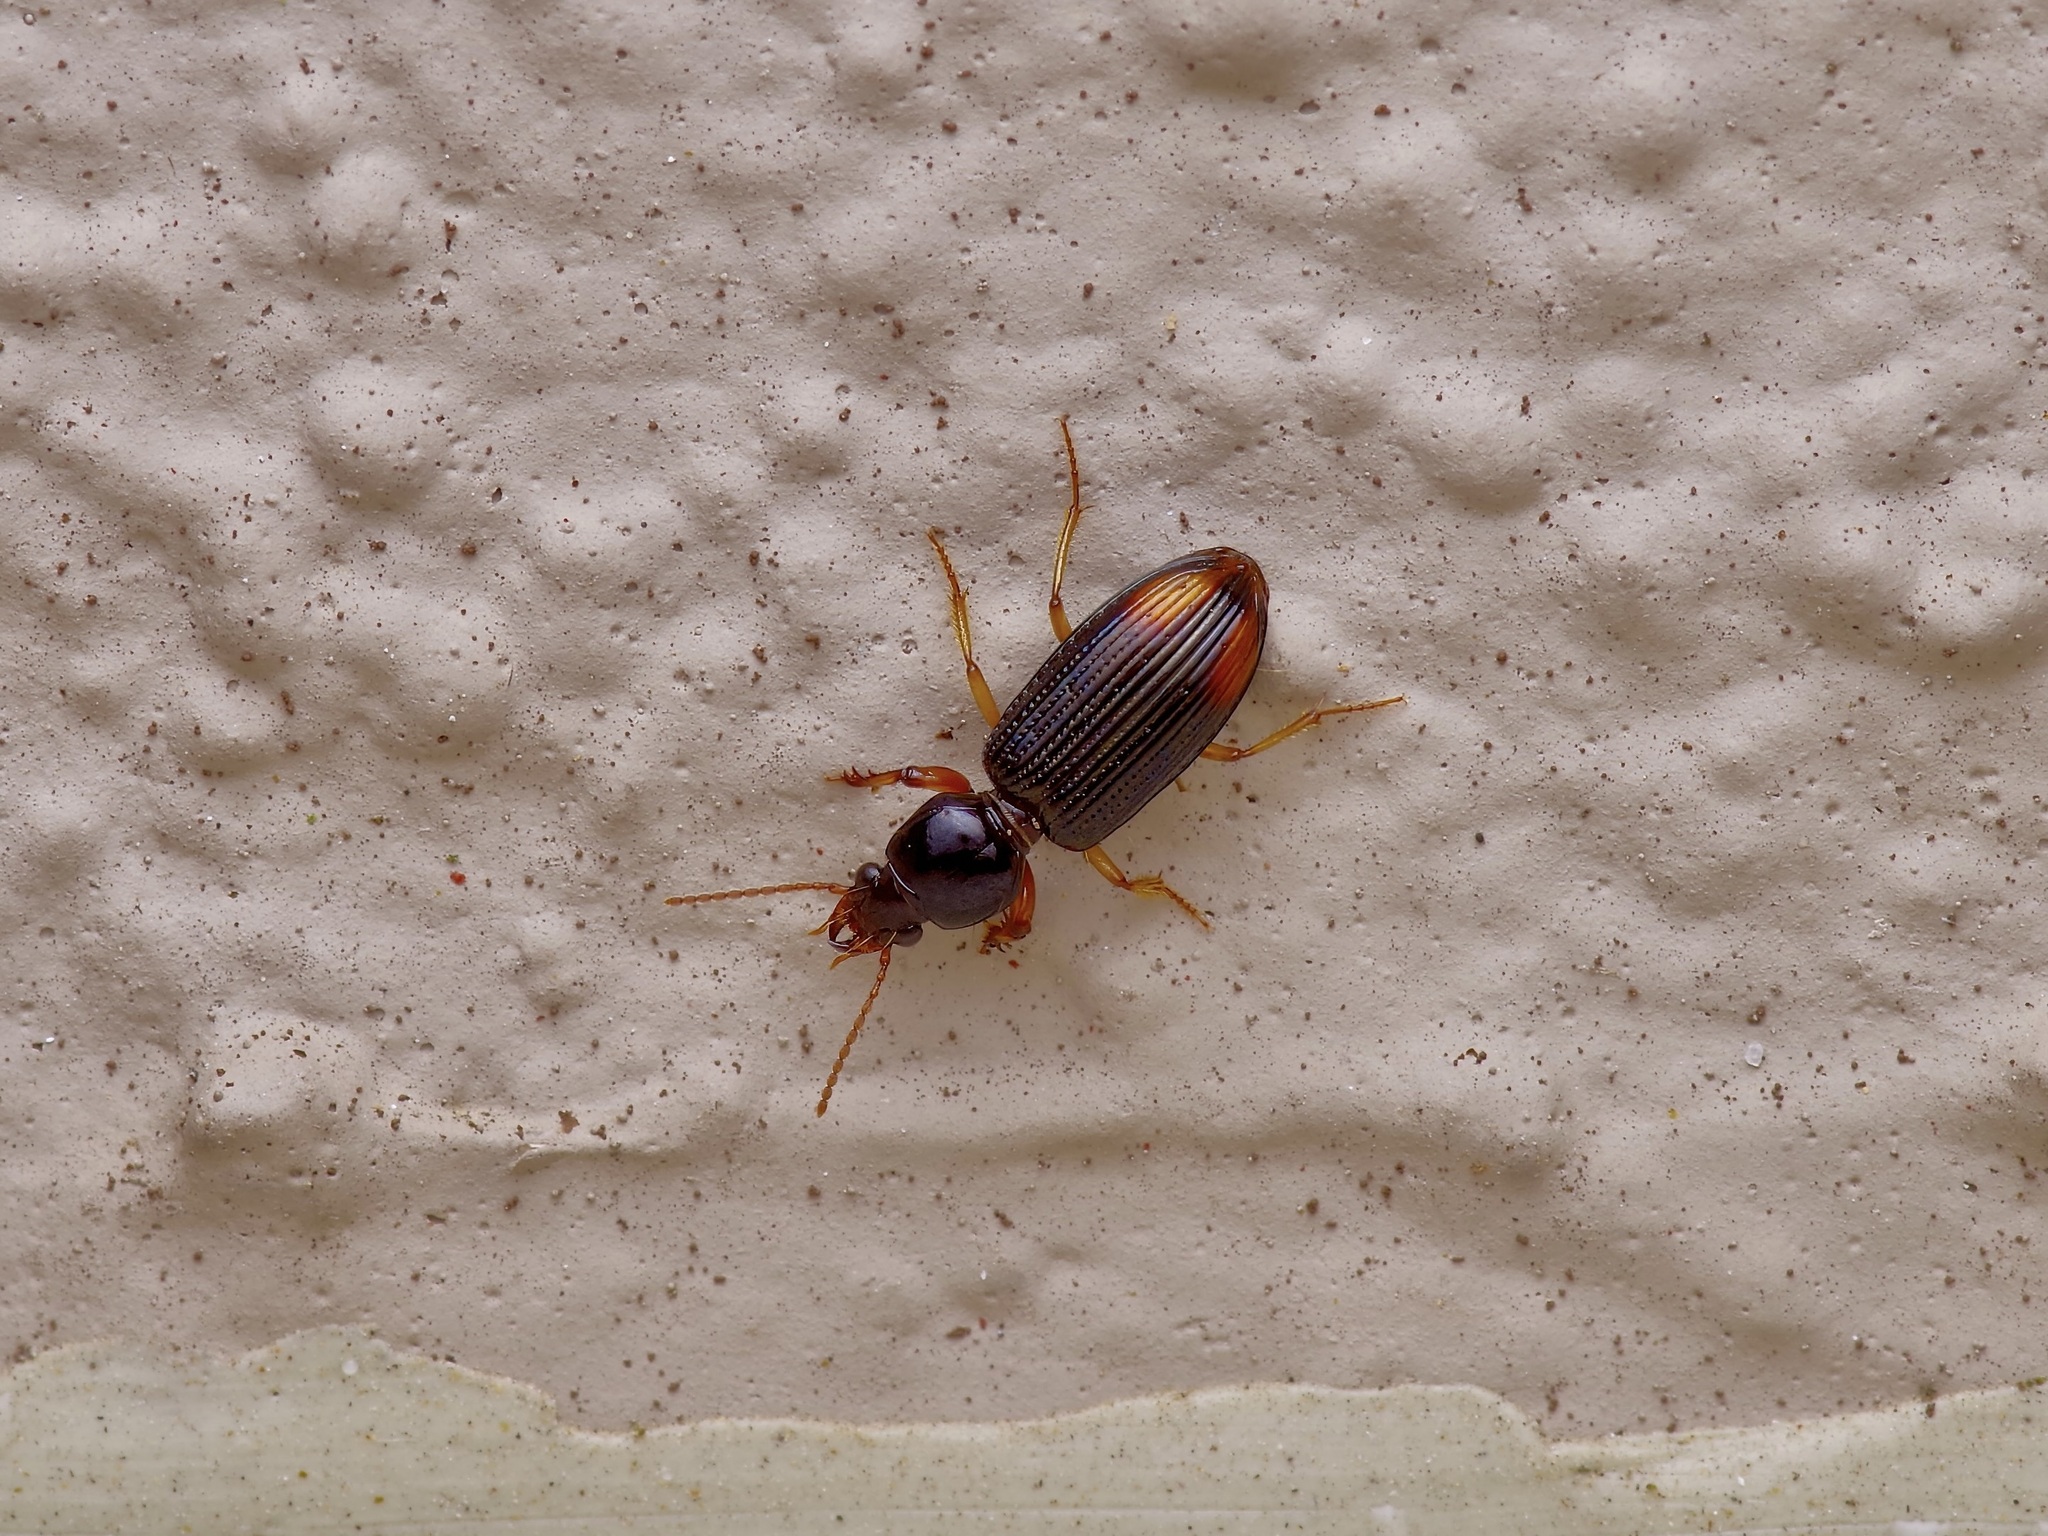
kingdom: Animalia
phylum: Arthropoda
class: Insecta
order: Coleoptera
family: Carabidae
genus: Aspidoglossa
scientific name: Aspidoglossa subangulata
